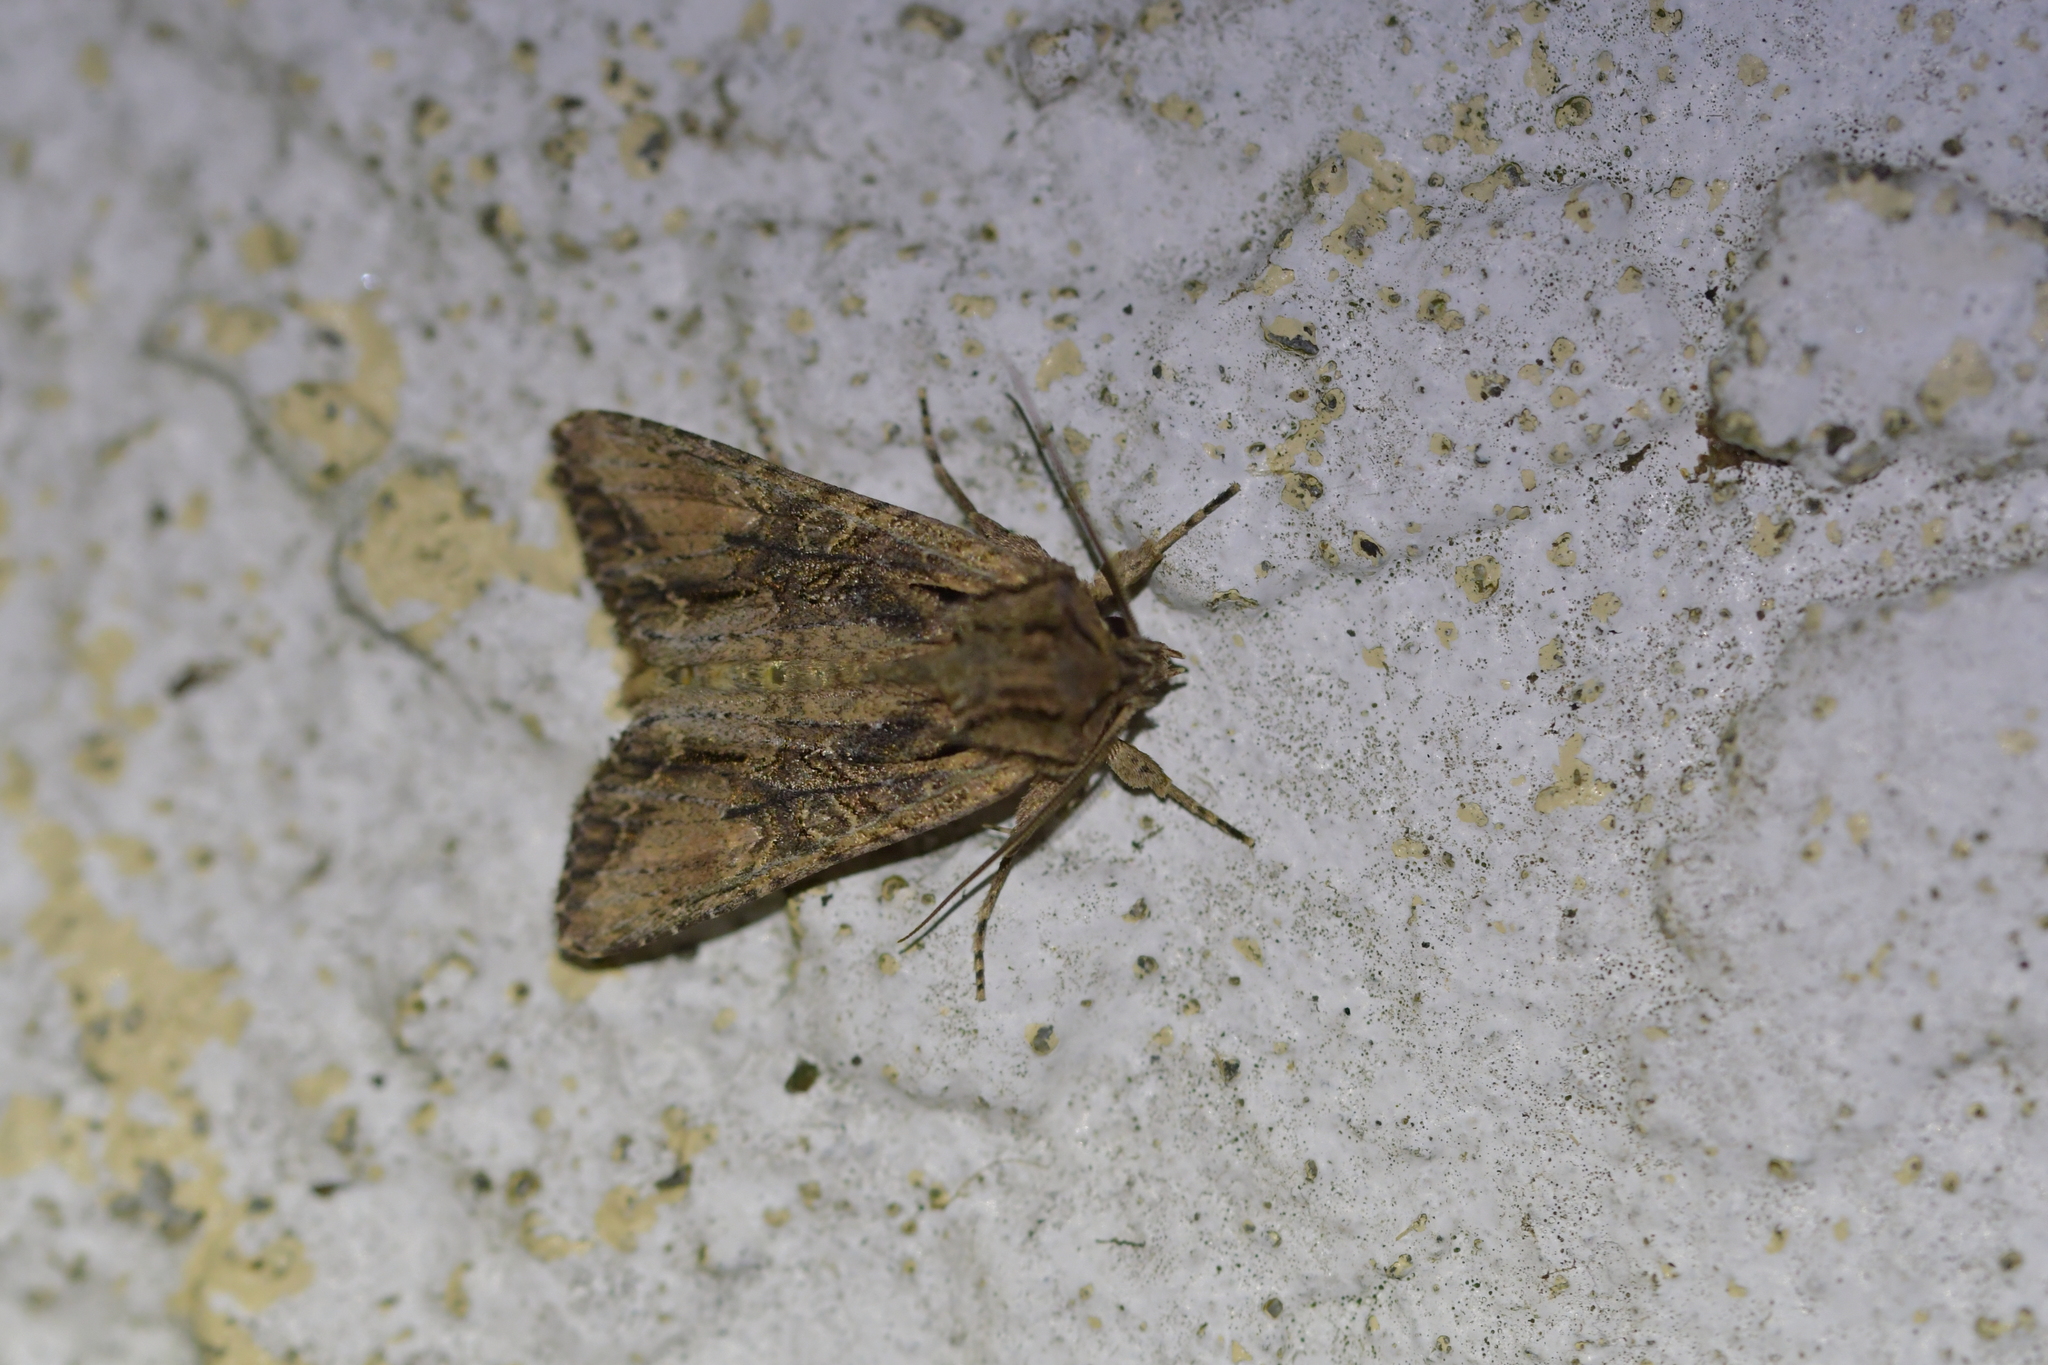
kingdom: Animalia
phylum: Arthropoda
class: Insecta
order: Lepidoptera
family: Noctuidae
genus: Ichneutica
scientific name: Ichneutica mutans
